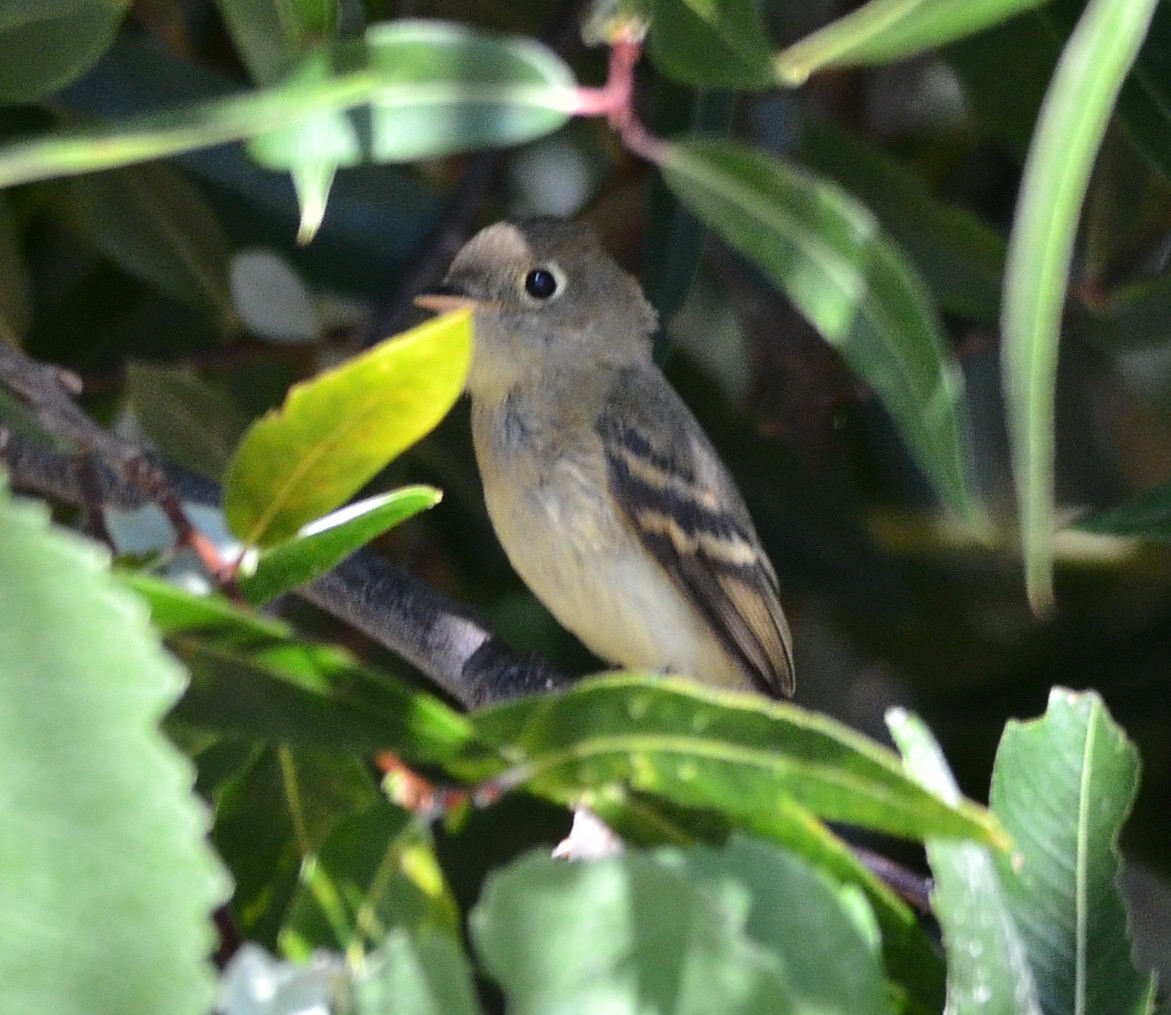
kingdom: Animalia
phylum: Chordata
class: Aves
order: Passeriformes
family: Tyrannidae
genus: Empidonax
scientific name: Empidonax difficilis
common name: Pacific-slope flycatcher
